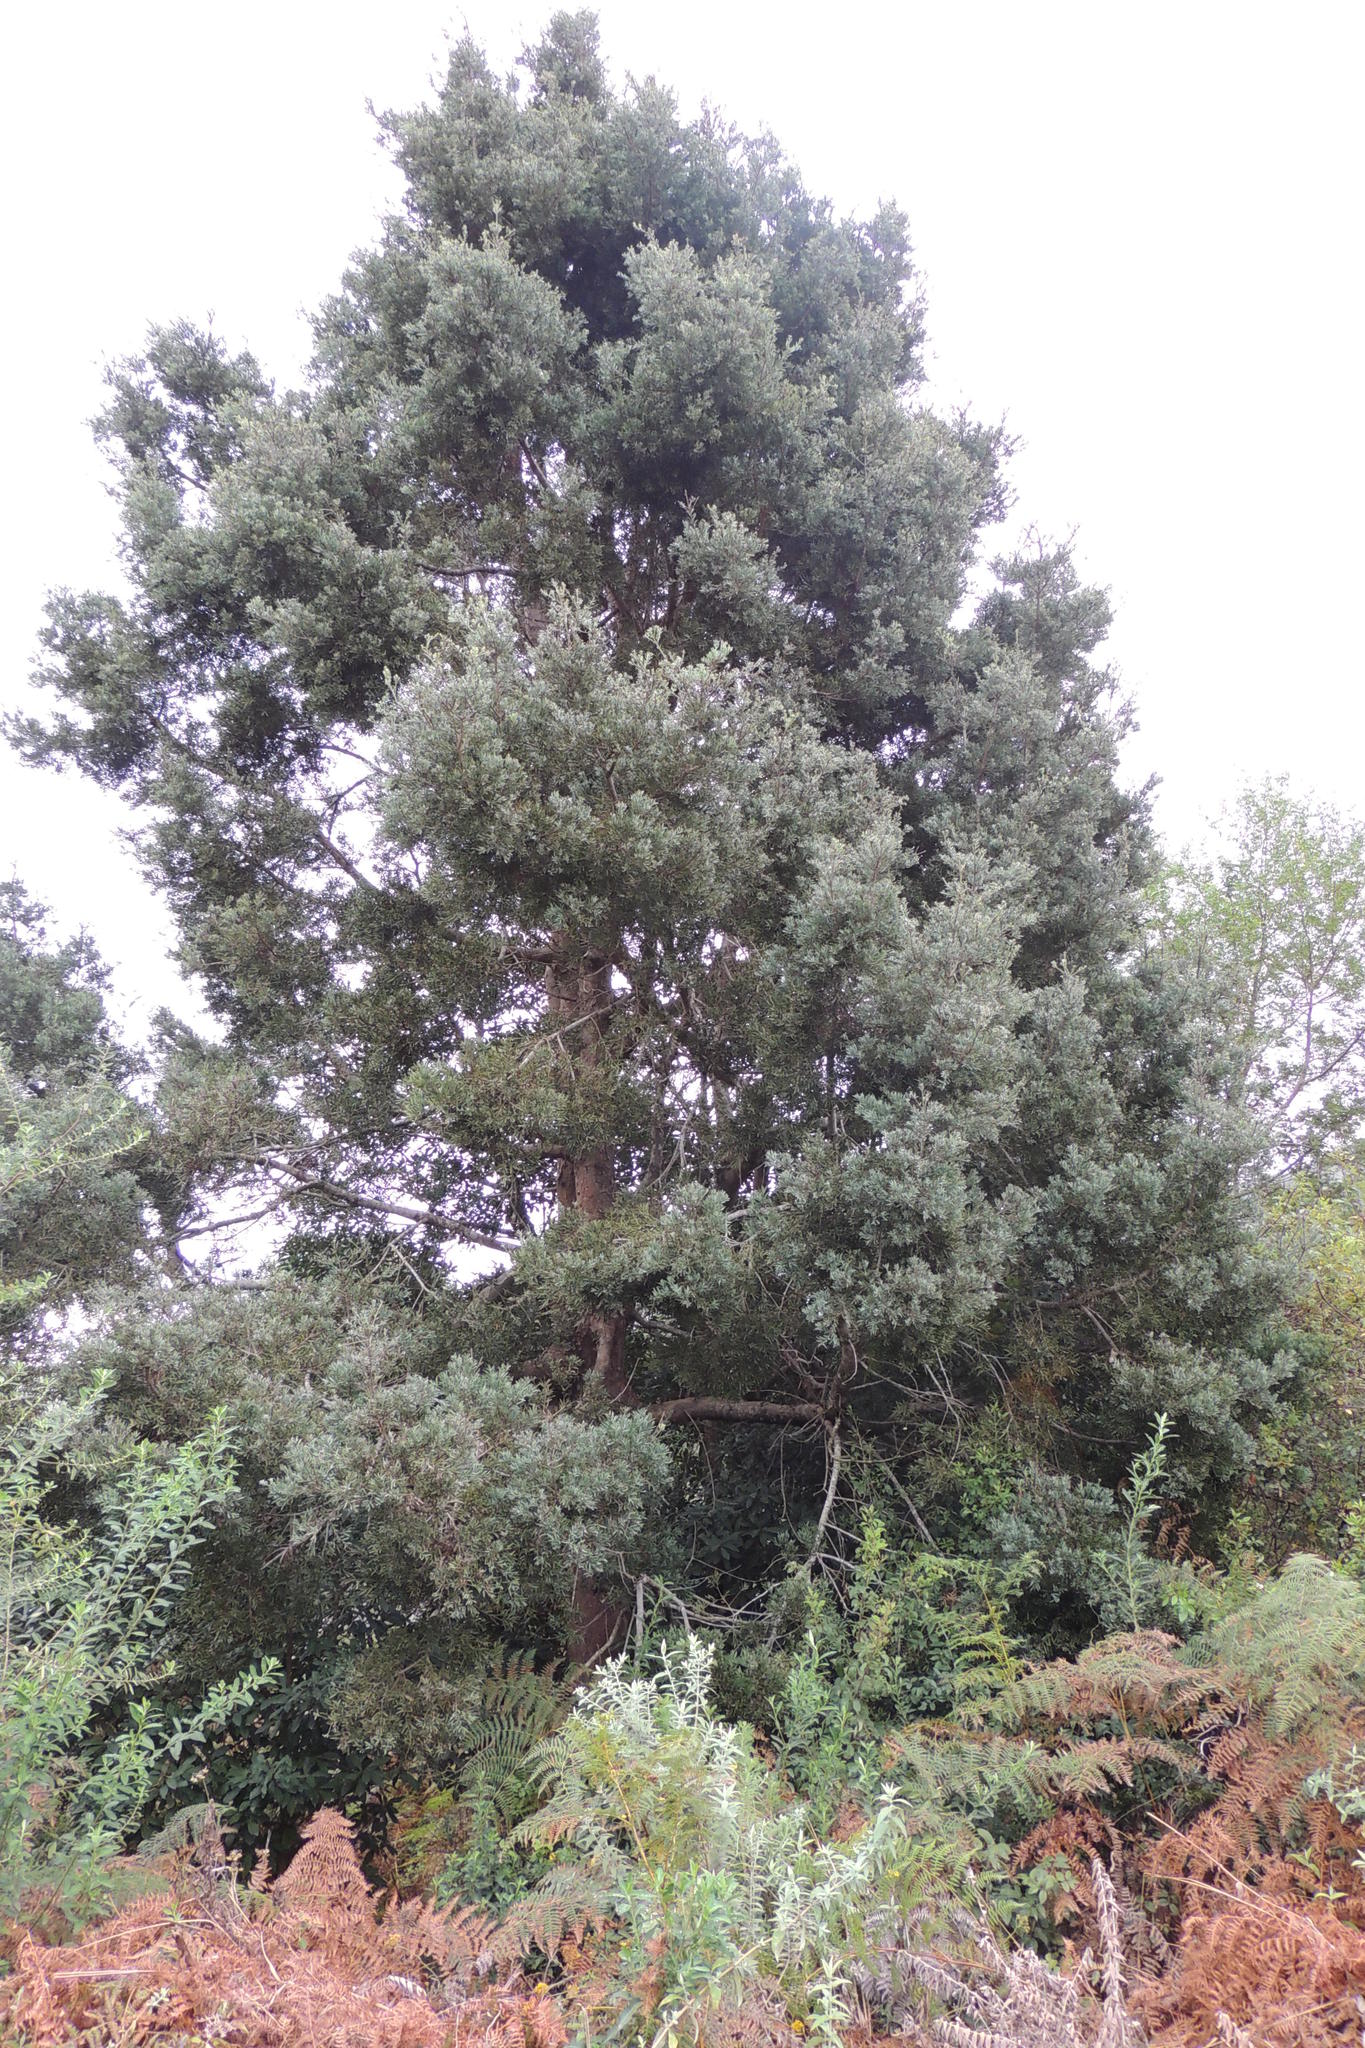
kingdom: Plantae
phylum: Tracheophyta
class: Pinopsida
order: Pinales
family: Podocarpaceae
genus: Afrocarpus
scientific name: Afrocarpus falcatus
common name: Bastard yellowwood
